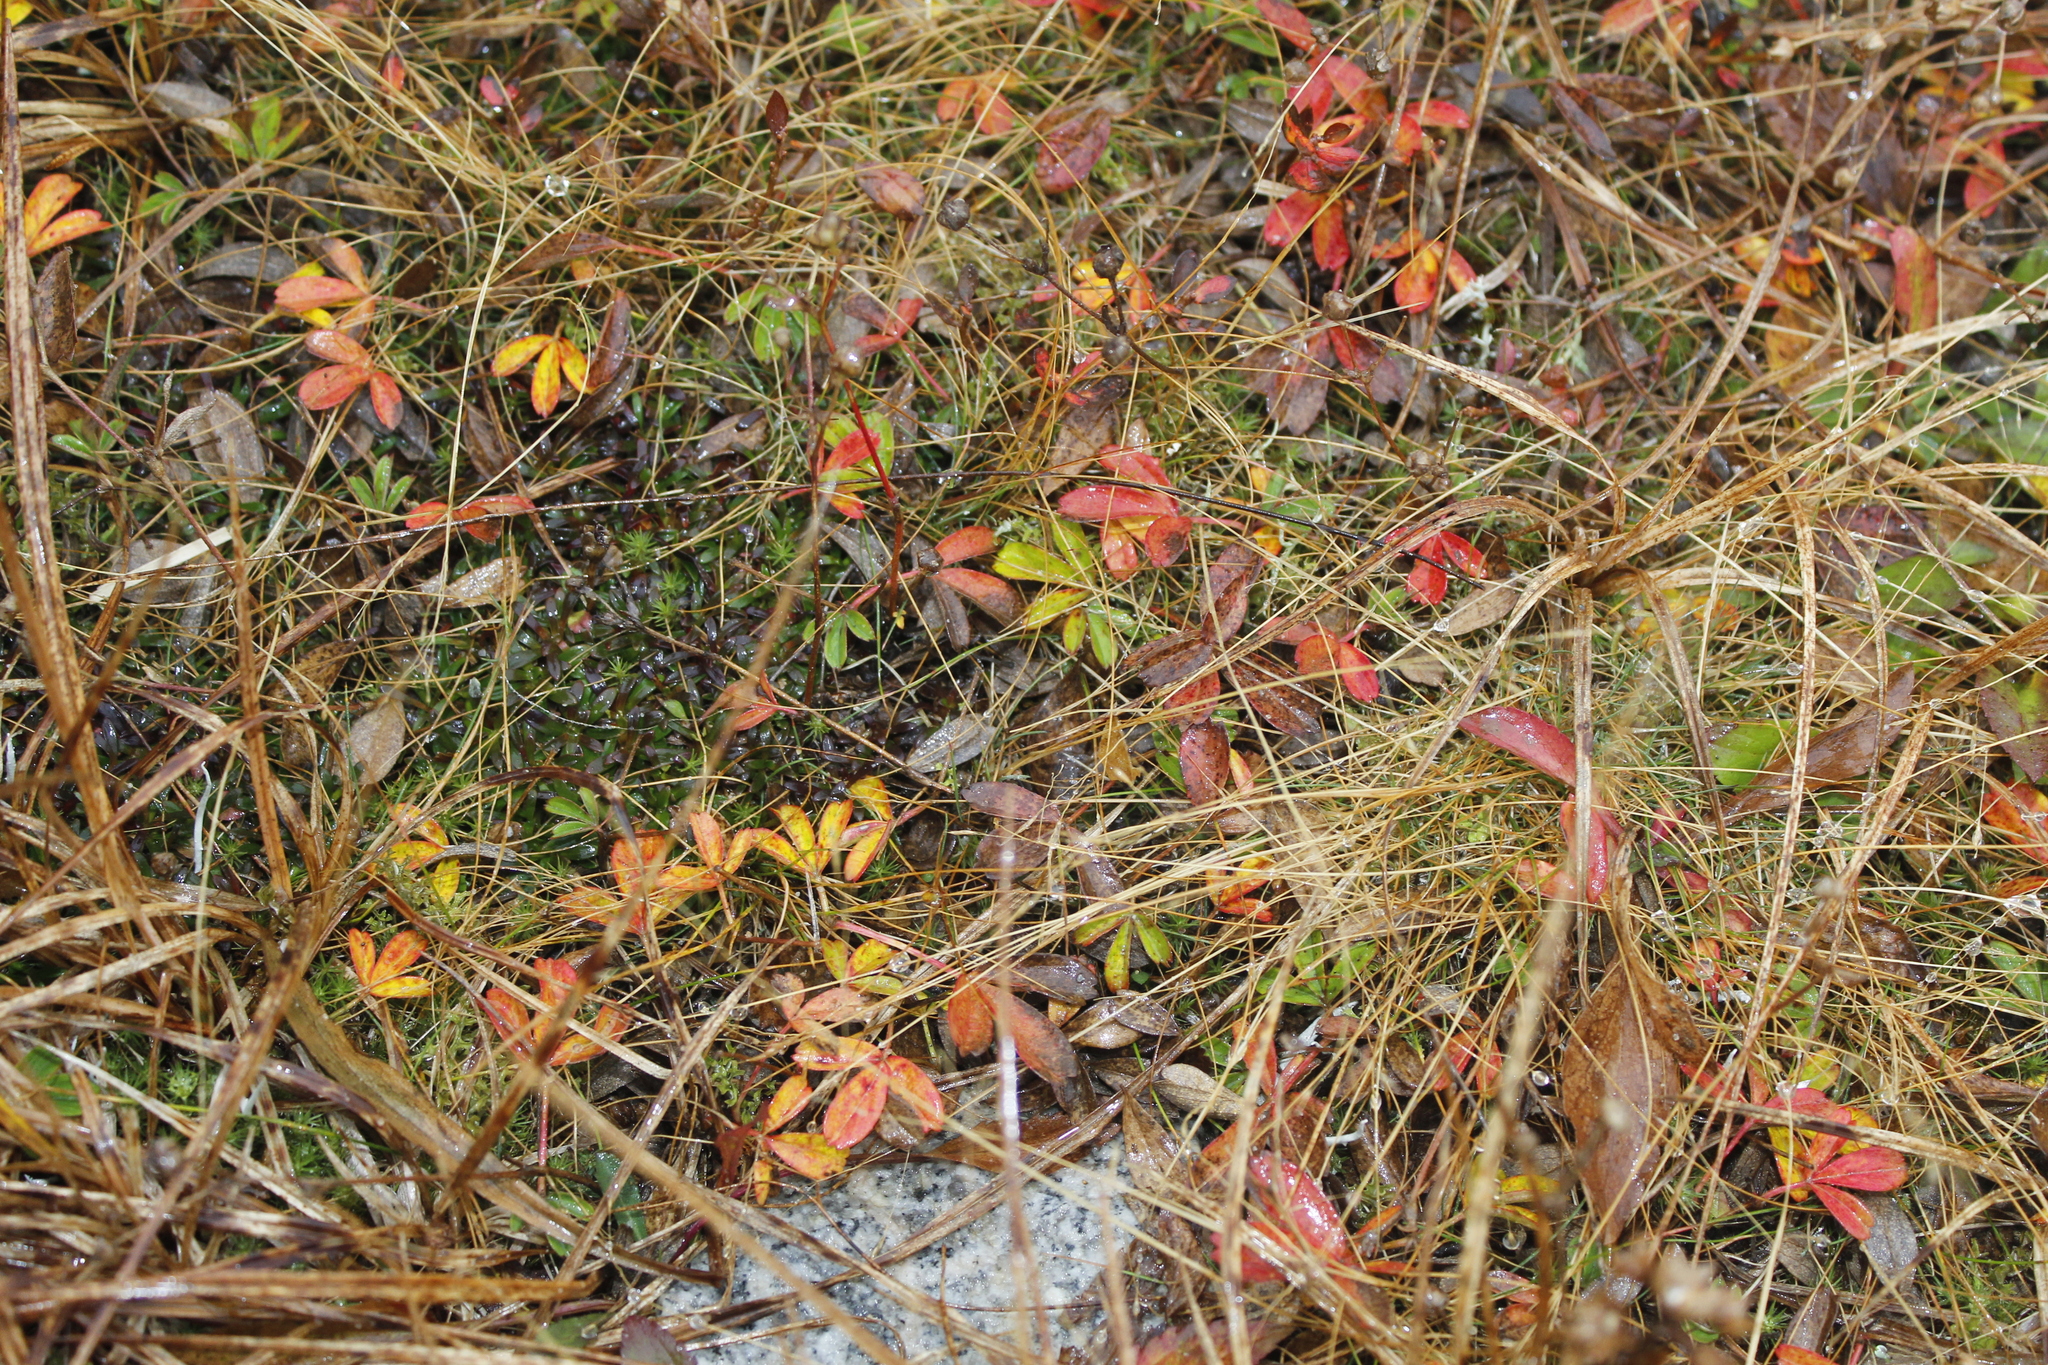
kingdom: Plantae
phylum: Tracheophyta
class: Magnoliopsida
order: Rosales
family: Rosaceae
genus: Sibbaldia
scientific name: Sibbaldia tridentata
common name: Three-toothed cinquefoil
